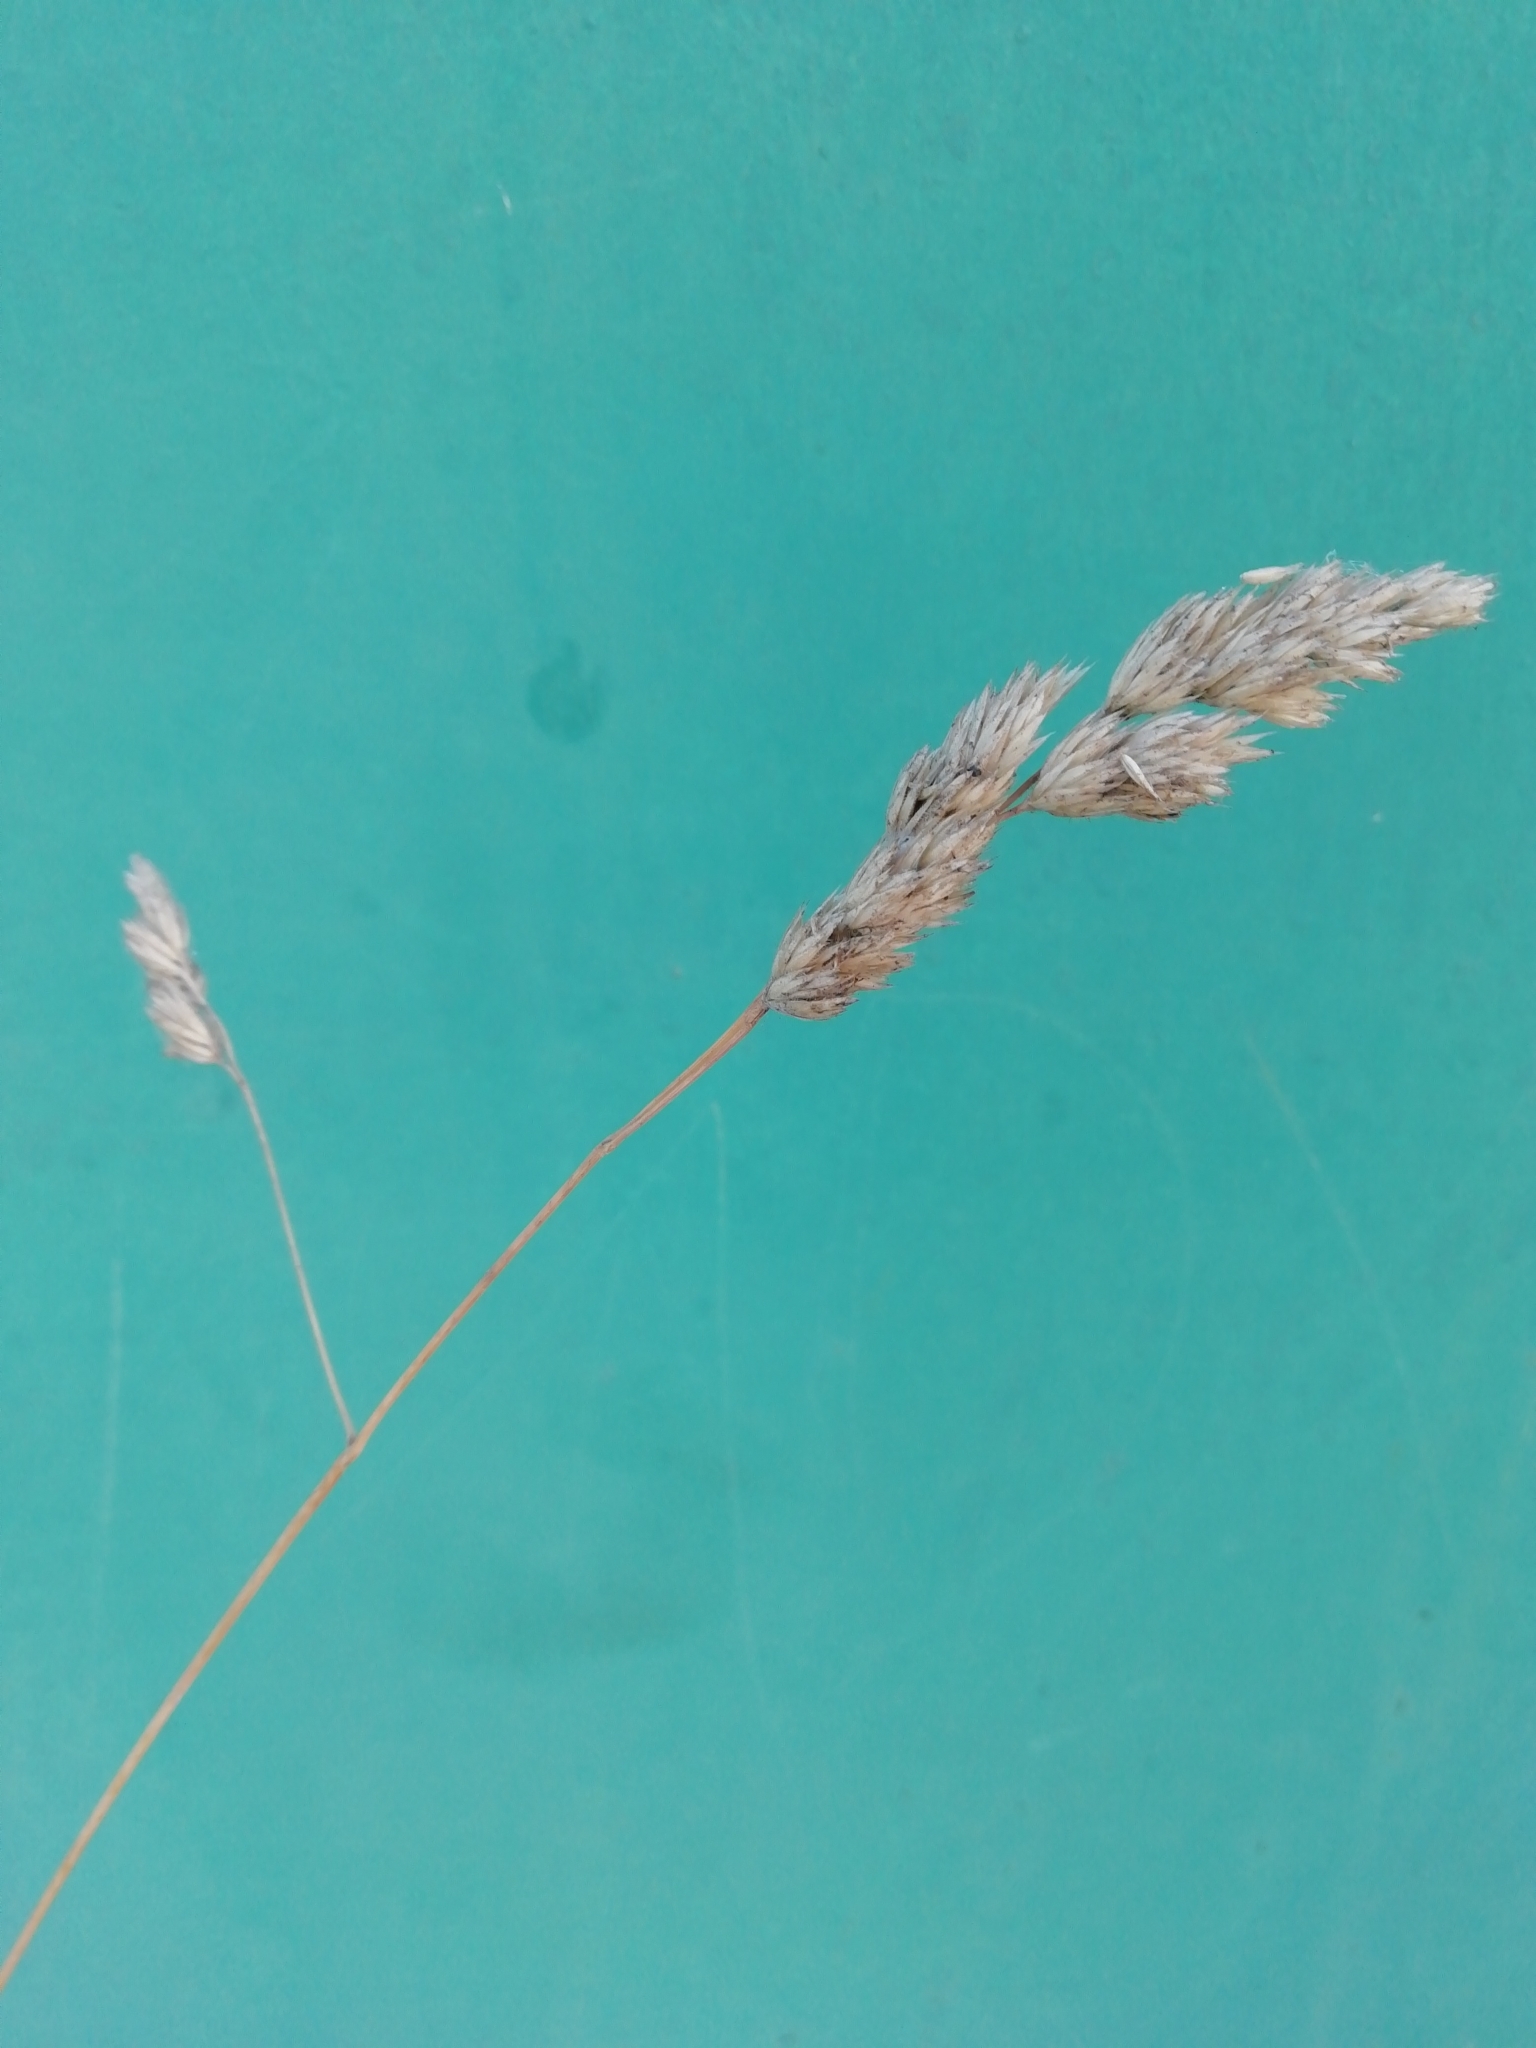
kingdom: Plantae
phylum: Tracheophyta
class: Liliopsida
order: Poales
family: Poaceae
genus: Dactylis
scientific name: Dactylis glomerata
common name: Orchardgrass
